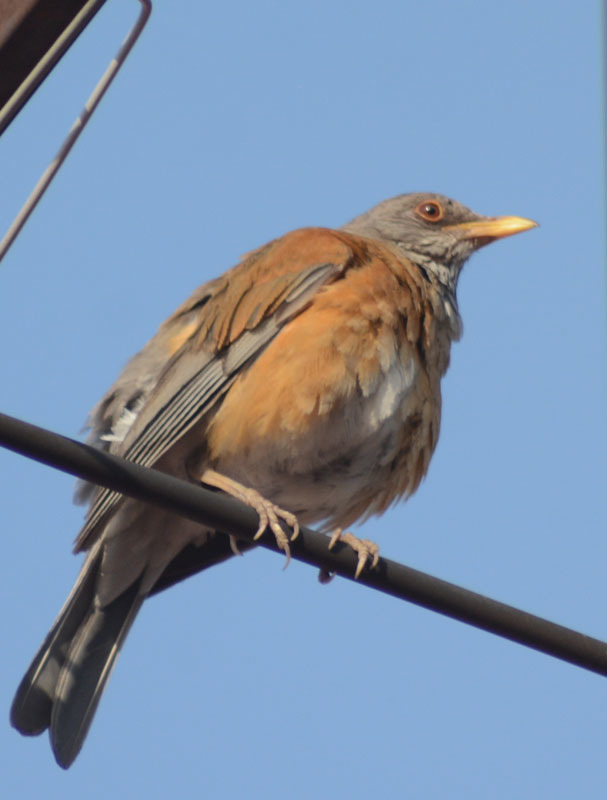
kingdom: Animalia
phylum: Chordata
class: Aves
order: Passeriformes
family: Turdidae
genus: Turdus
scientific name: Turdus rufopalliatus
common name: Rufous-backed robin
